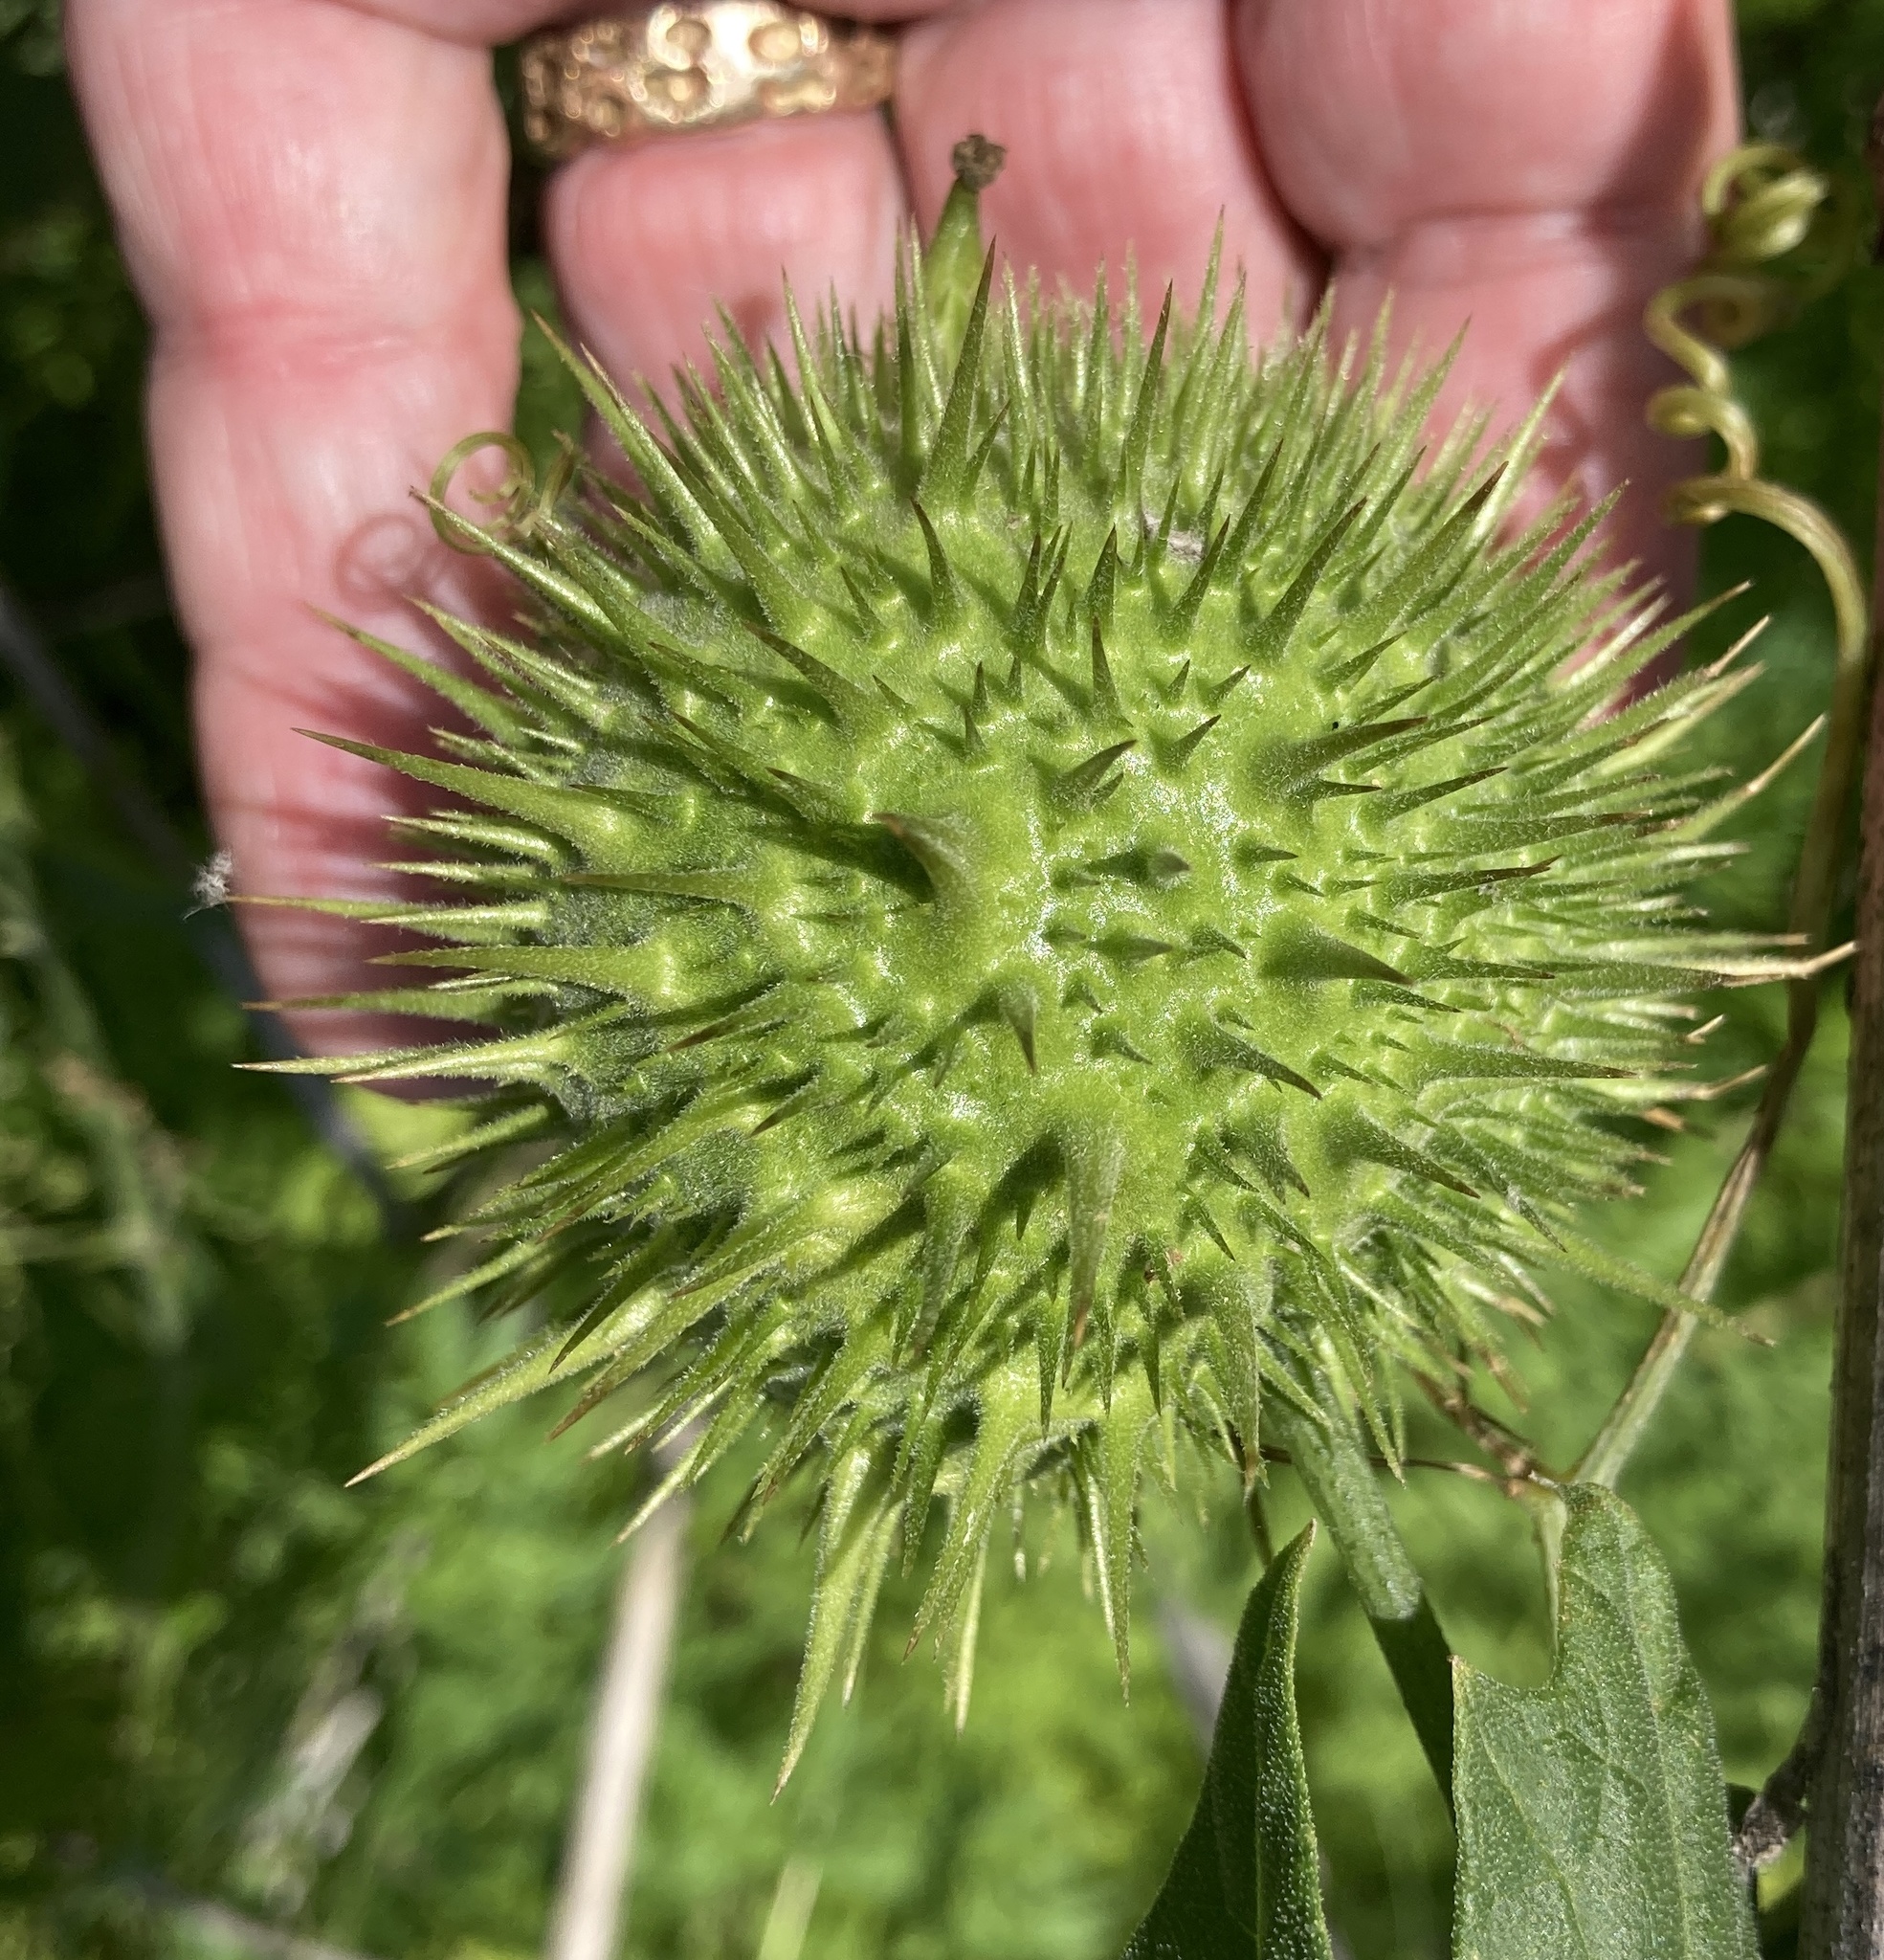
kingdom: Plantae
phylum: Tracheophyta
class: Magnoliopsida
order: Cucurbitales
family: Cucurbitaceae
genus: Marah
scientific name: Marah fabacea
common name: California manroot
